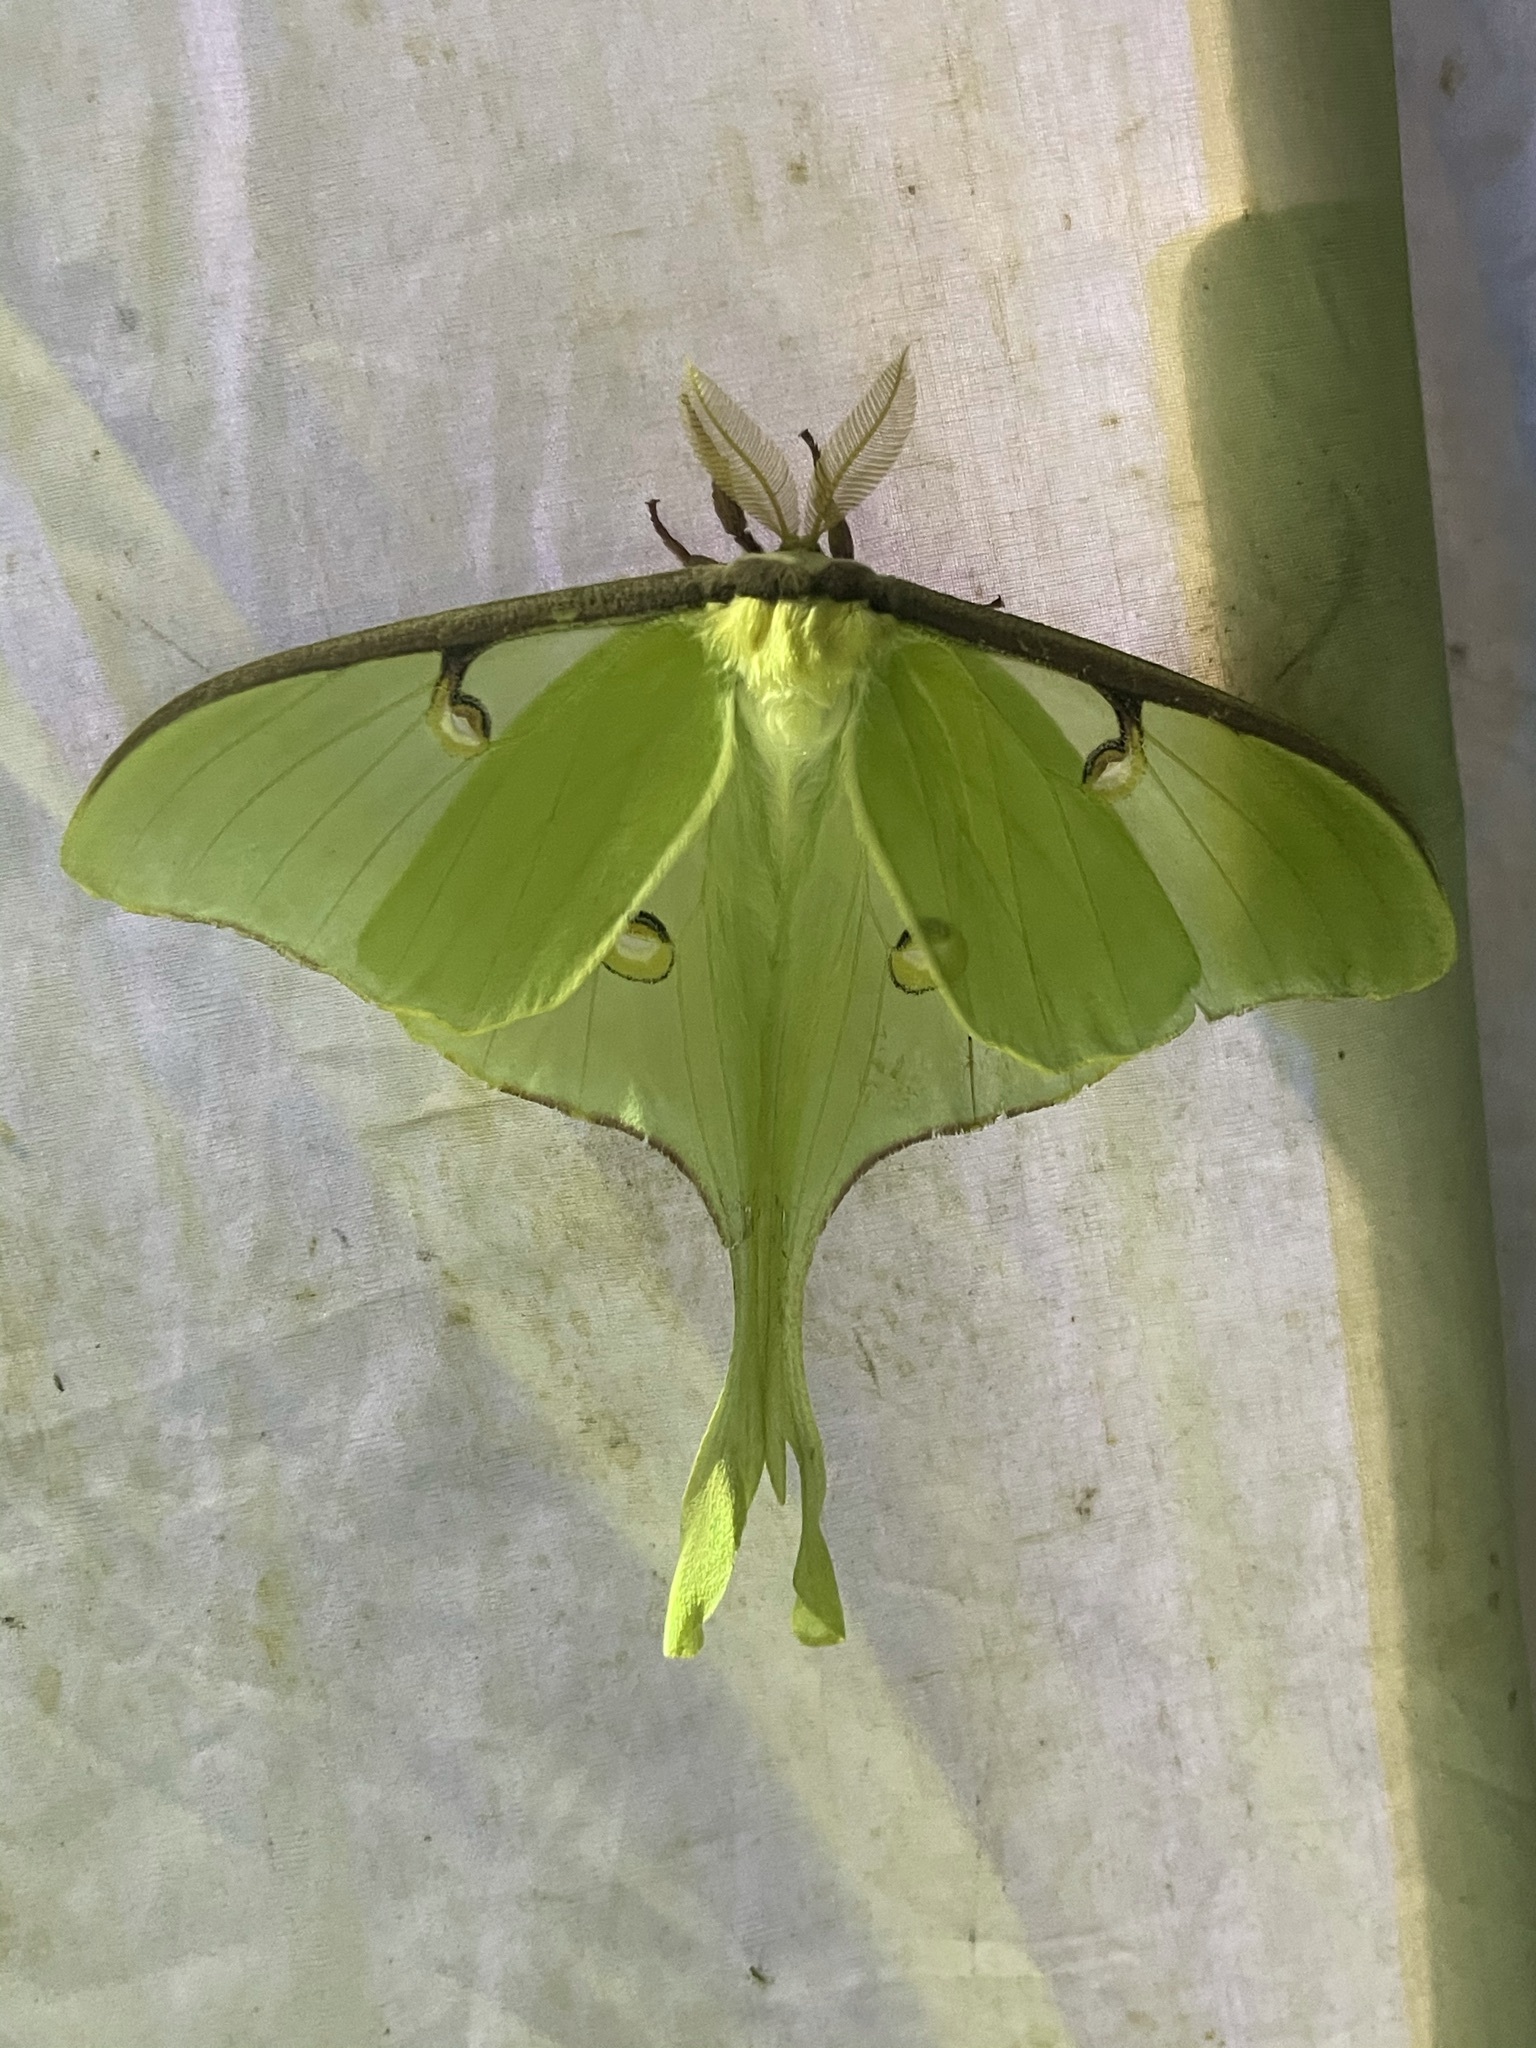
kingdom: Animalia
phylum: Arthropoda
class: Insecta
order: Lepidoptera
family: Saturniidae
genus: Actias
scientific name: Actias luna
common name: Luna moth
